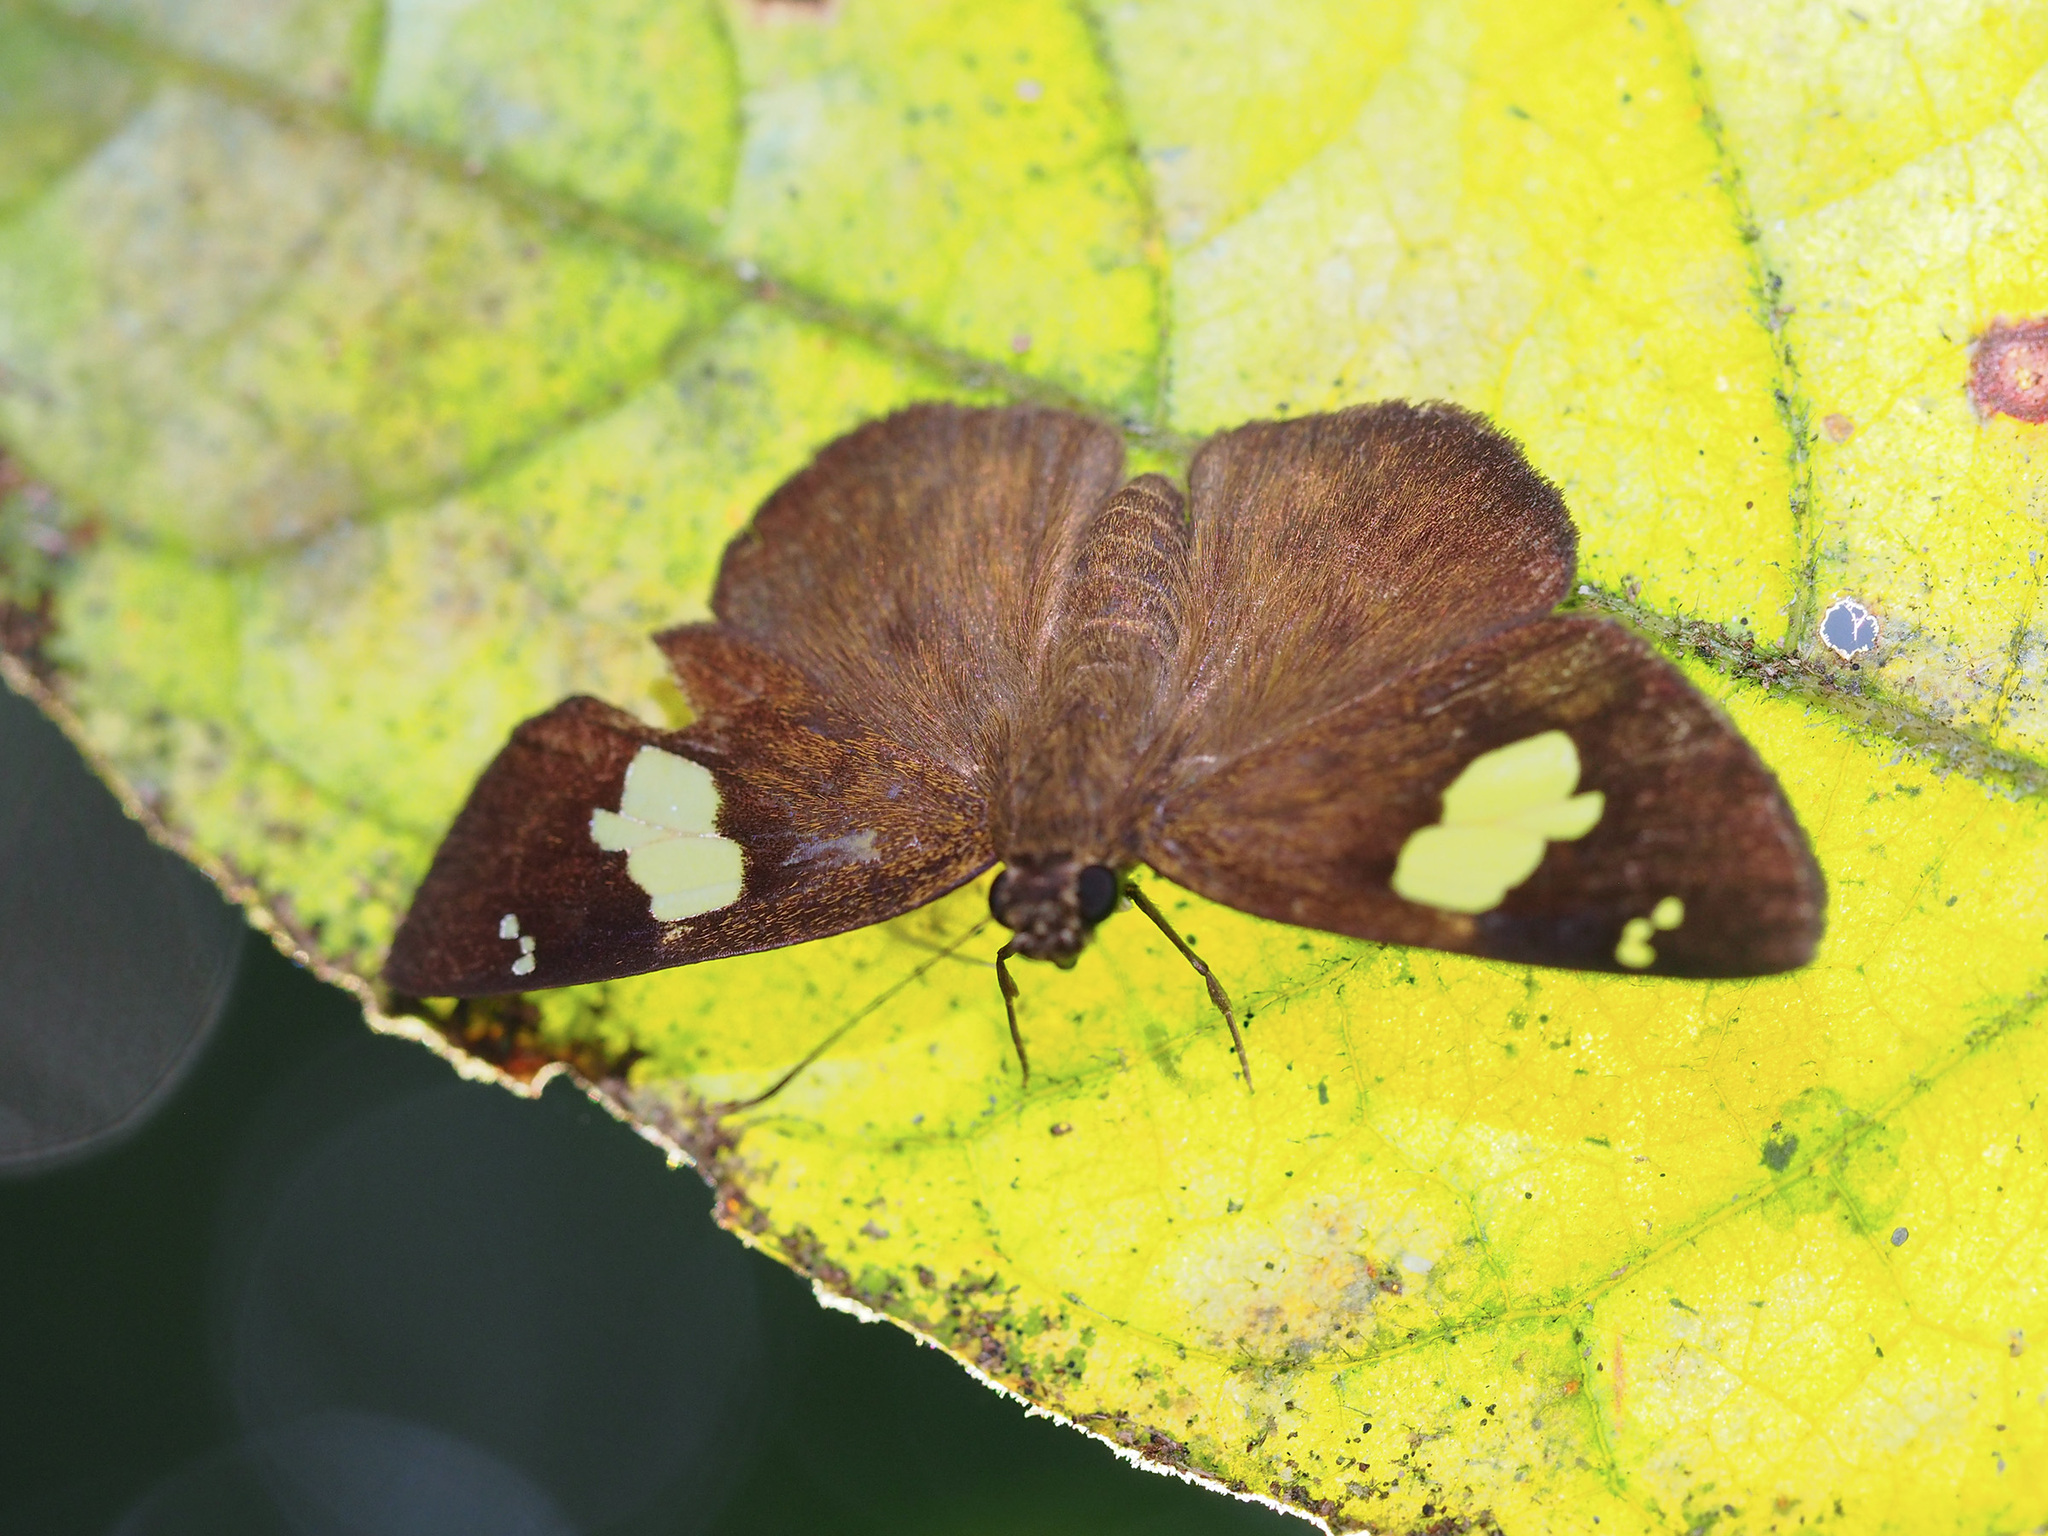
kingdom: Animalia
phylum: Arthropoda
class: Insecta
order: Lepidoptera
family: Hesperiidae
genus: Celaenorrhinus
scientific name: Celaenorrhinus asmara
